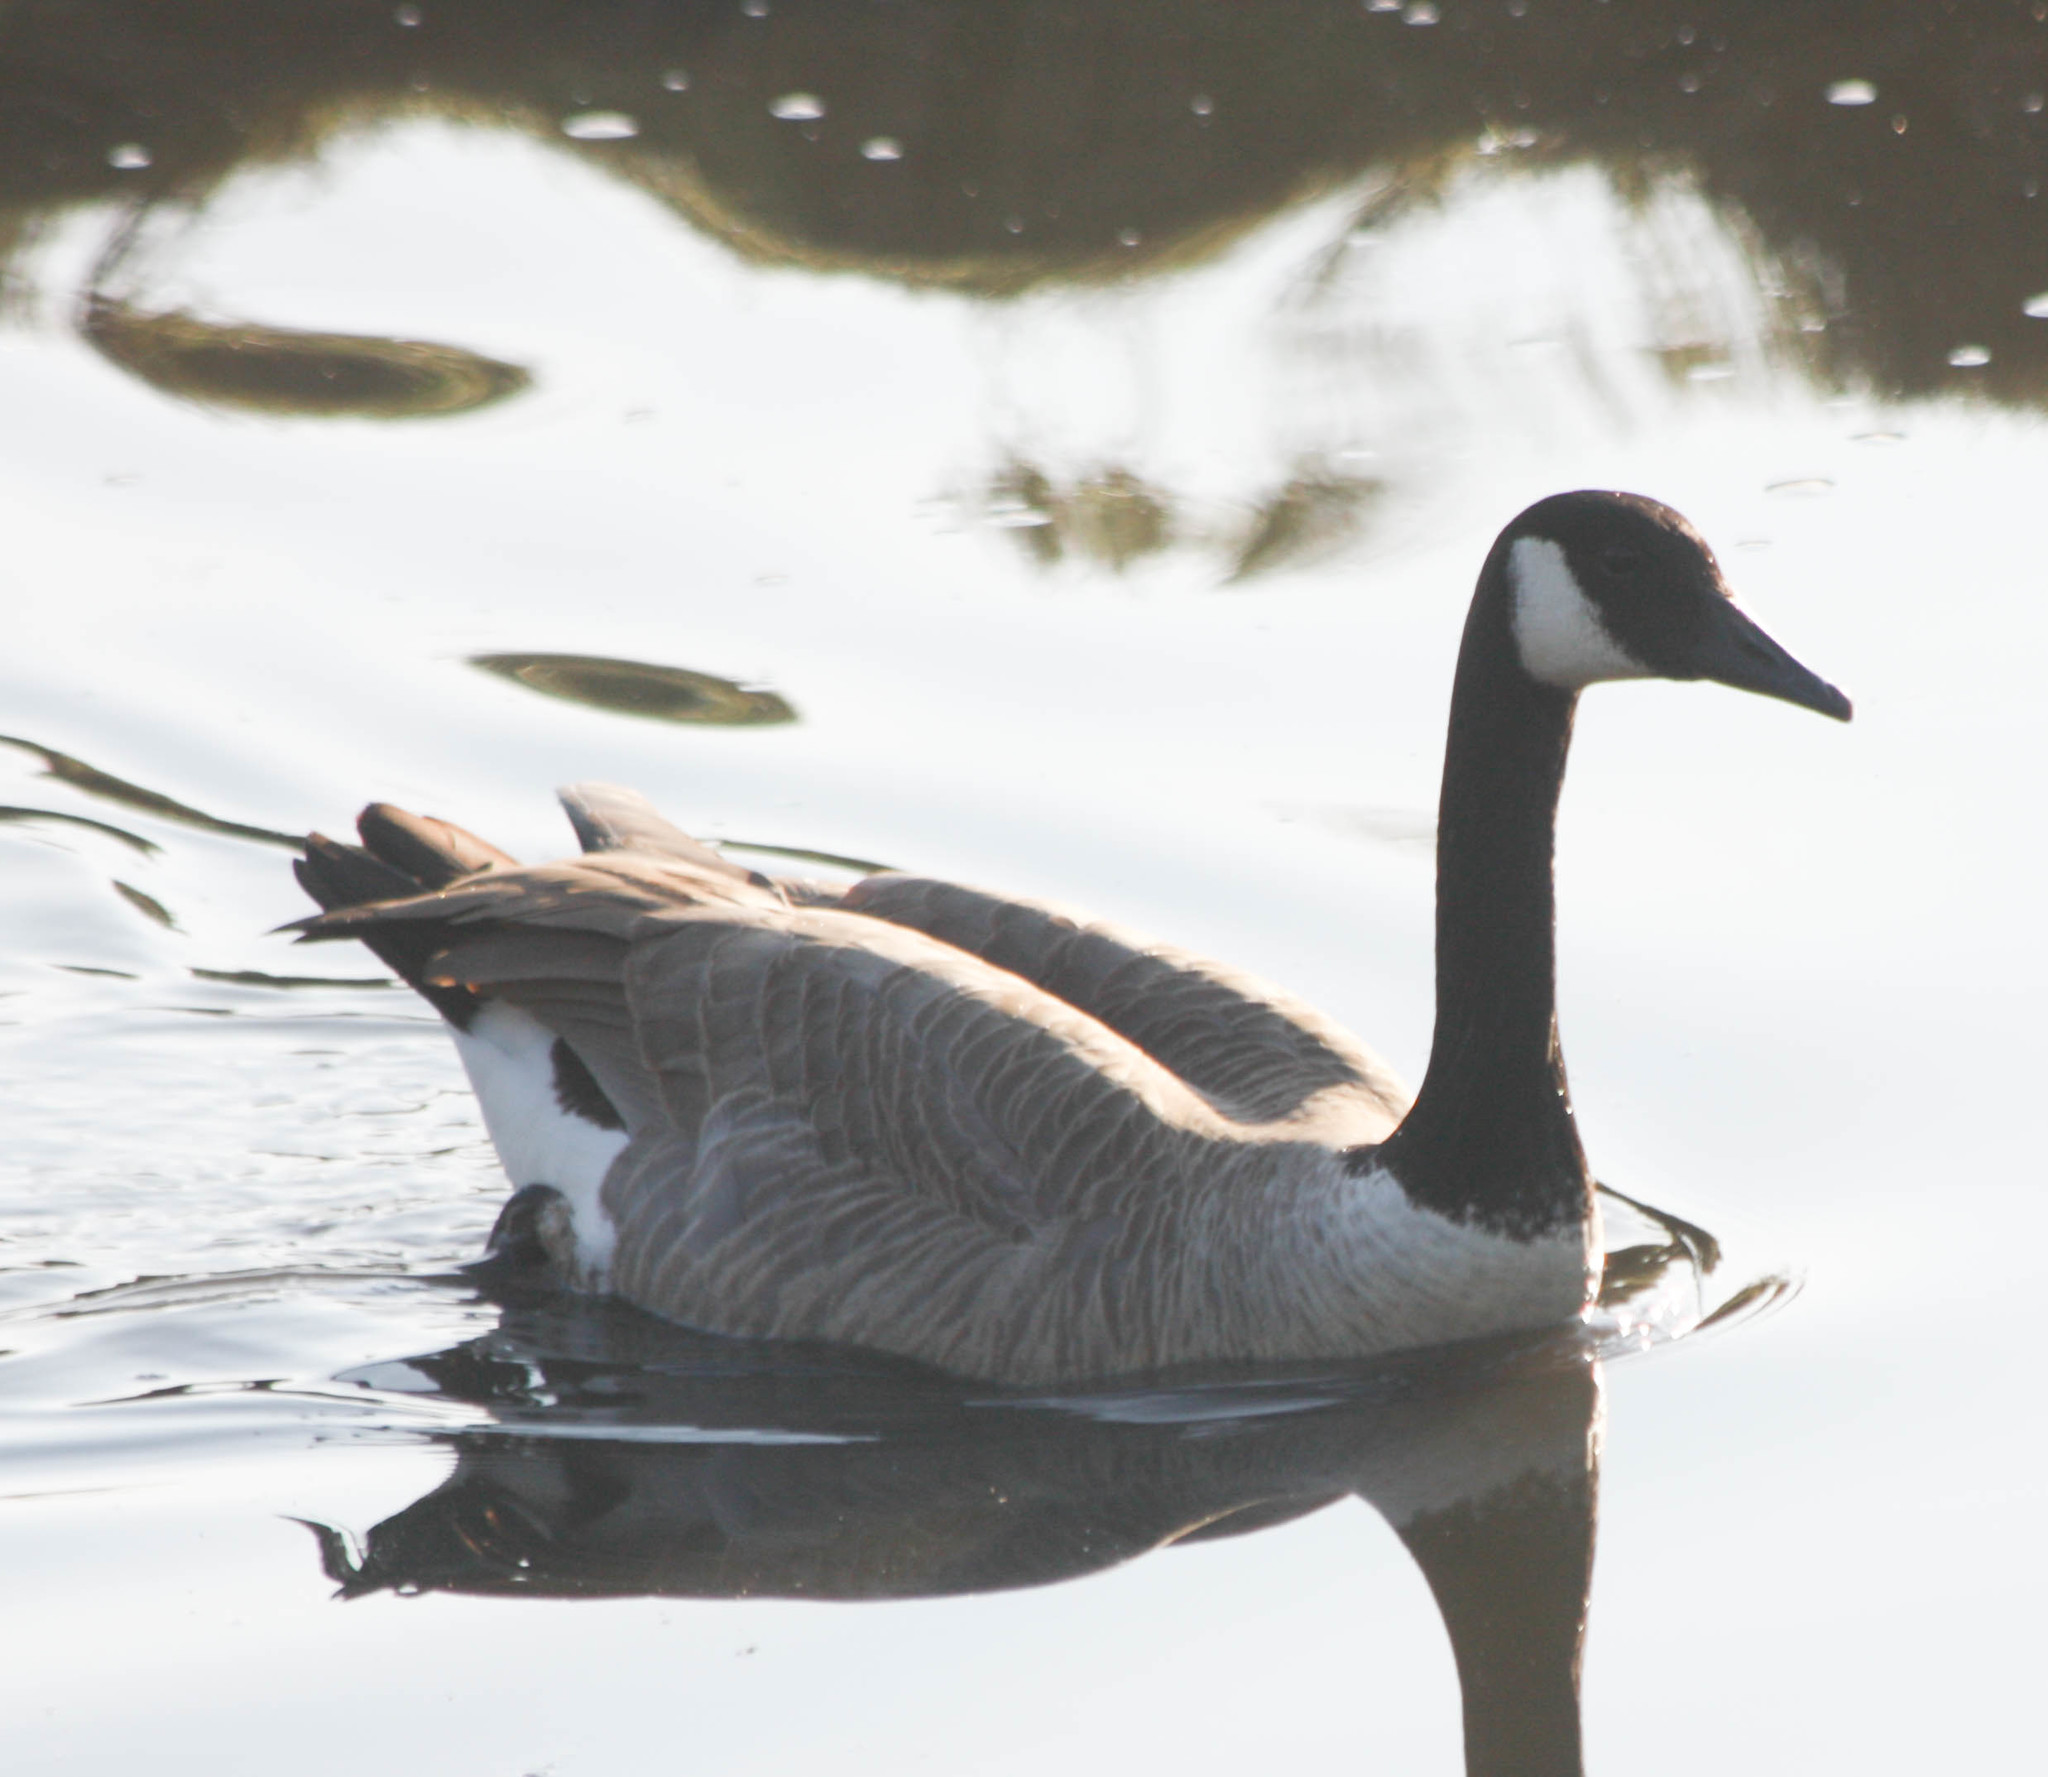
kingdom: Animalia
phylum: Chordata
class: Aves
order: Anseriformes
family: Anatidae
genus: Branta
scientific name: Branta canadensis
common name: Canada goose
